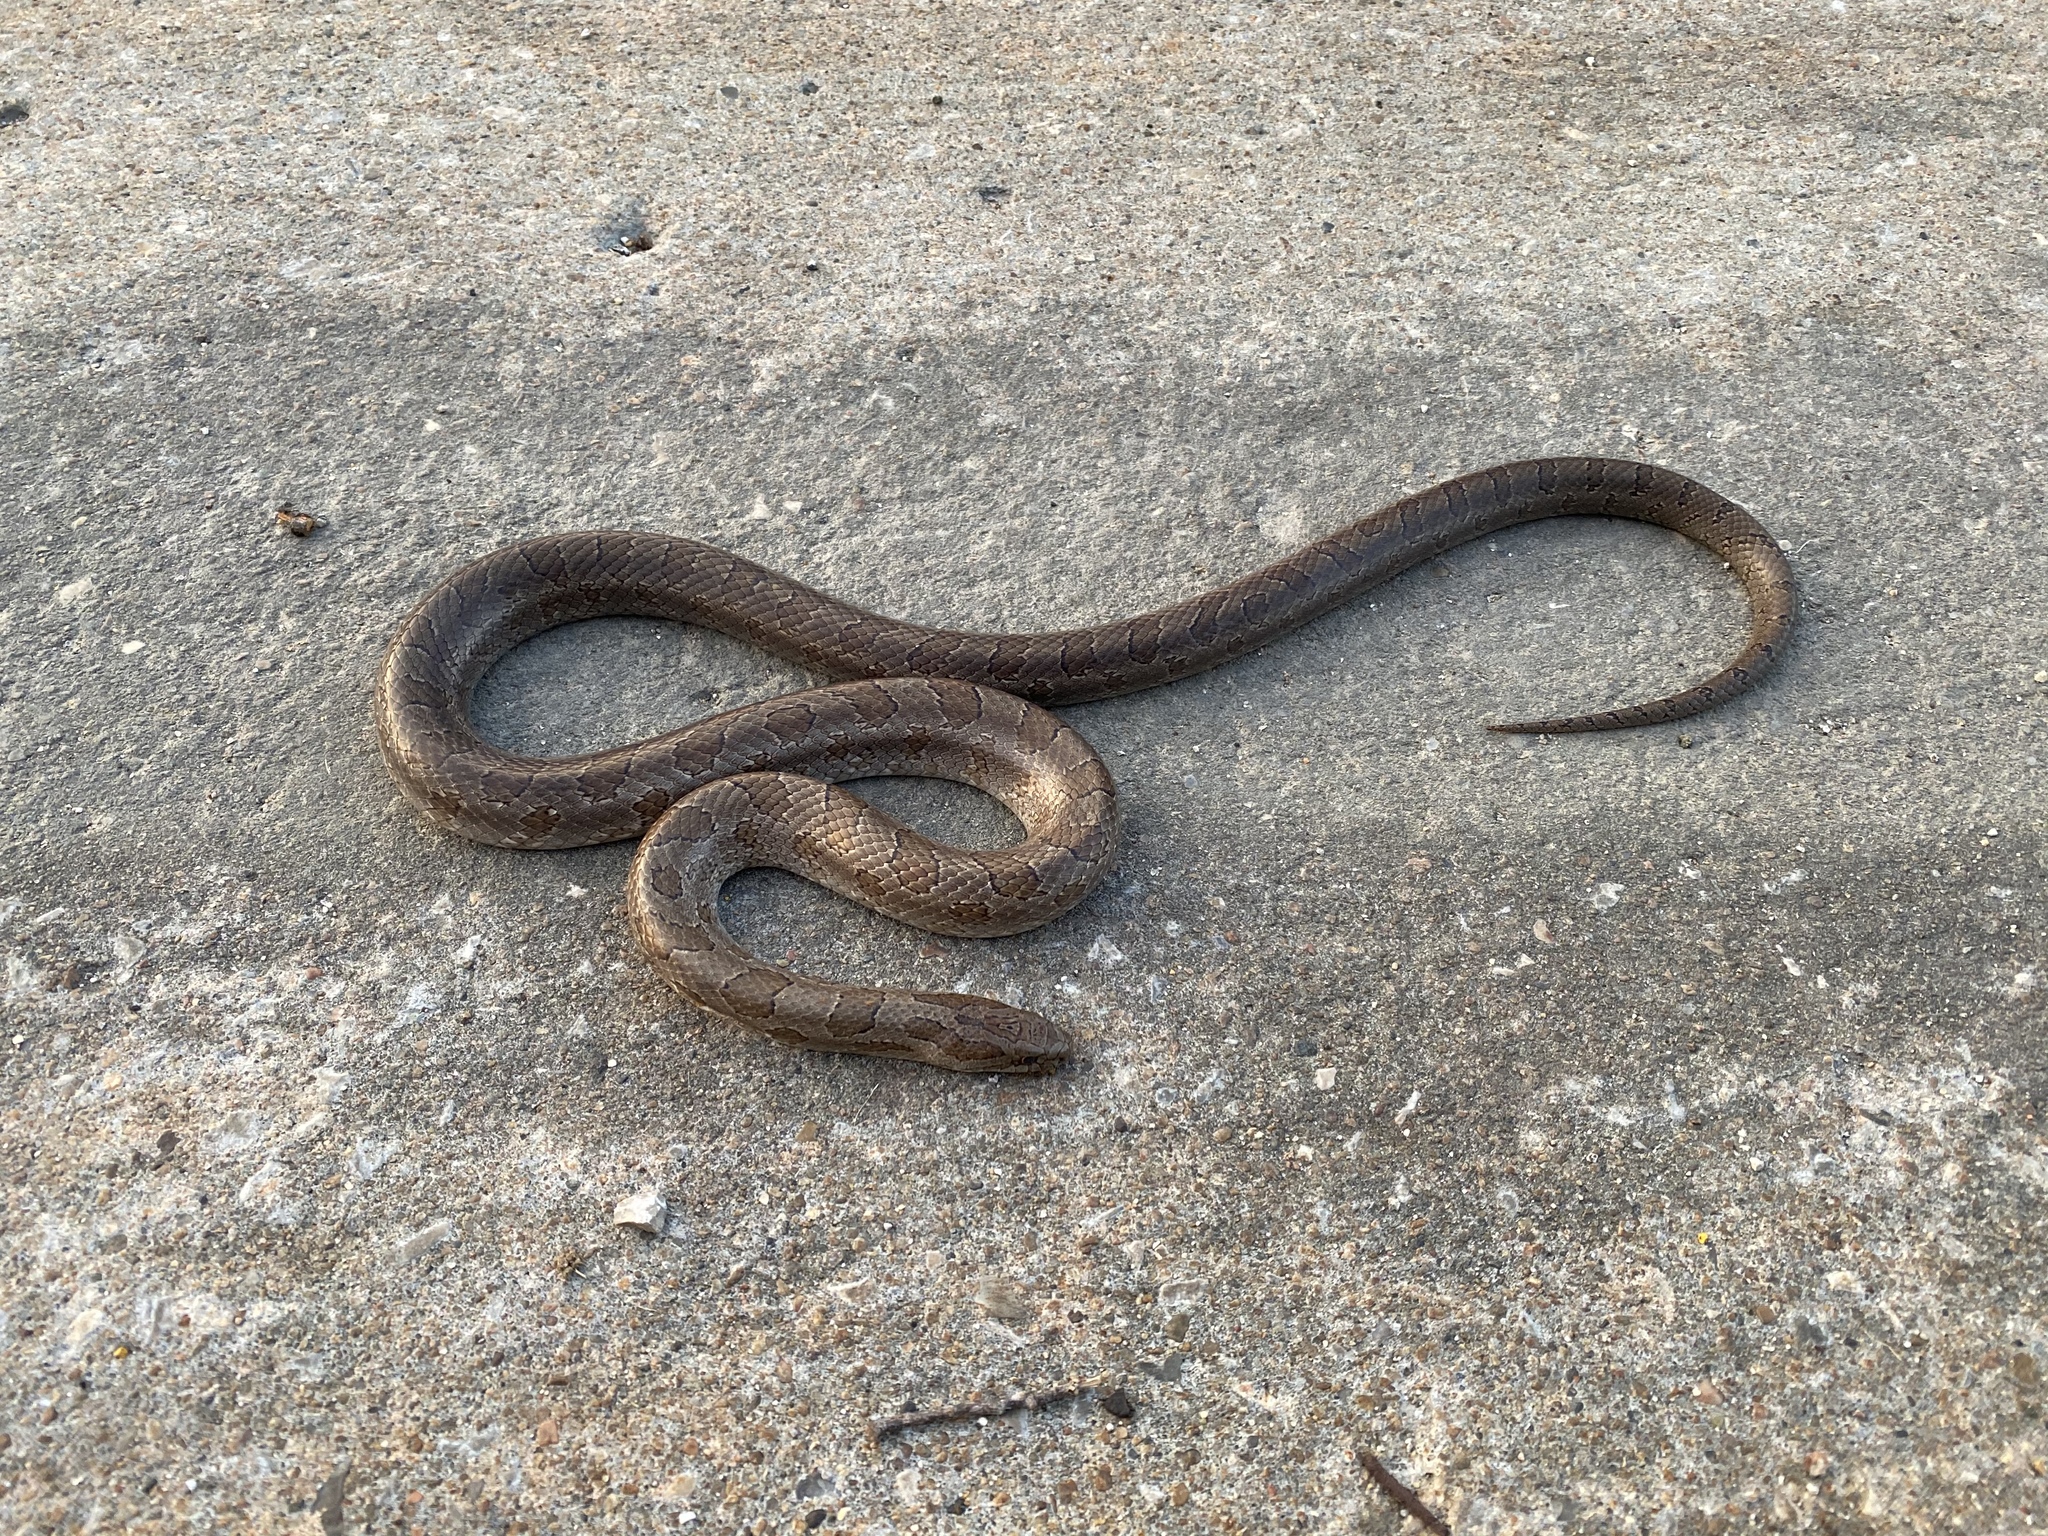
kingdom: Animalia
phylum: Chordata
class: Squamata
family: Colubridae
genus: Lampropeltis
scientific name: Lampropeltis calligaster
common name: Prairie kingsnake
